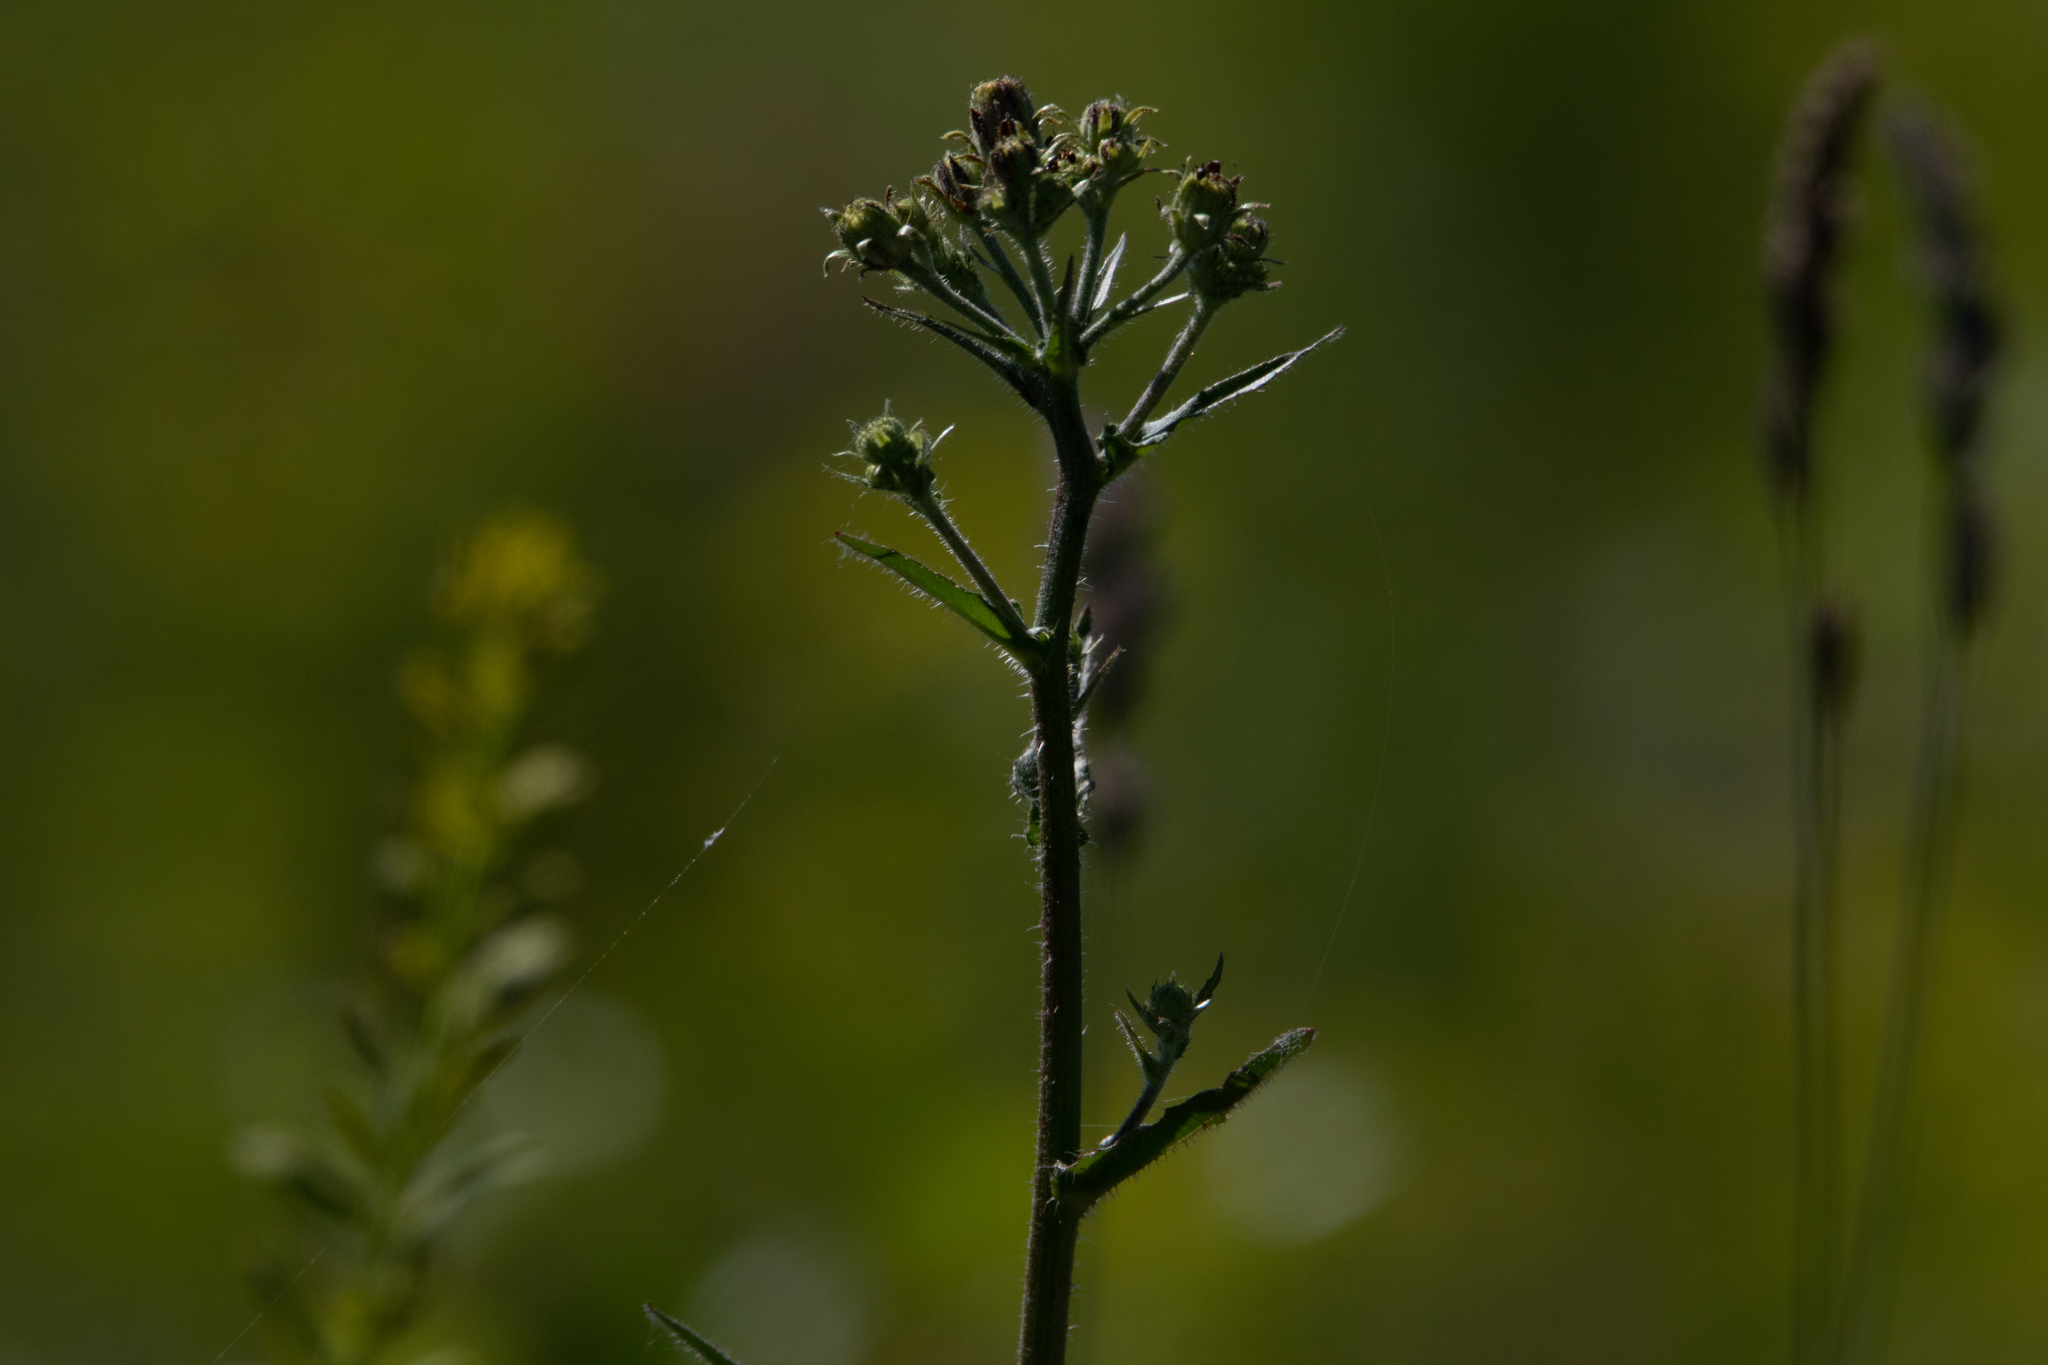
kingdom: Plantae
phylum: Tracheophyta
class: Magnoliopsida
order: Asterales
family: Asteraceae
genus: Picris
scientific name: Picris hieracioides
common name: Hawkweed oxtongue
